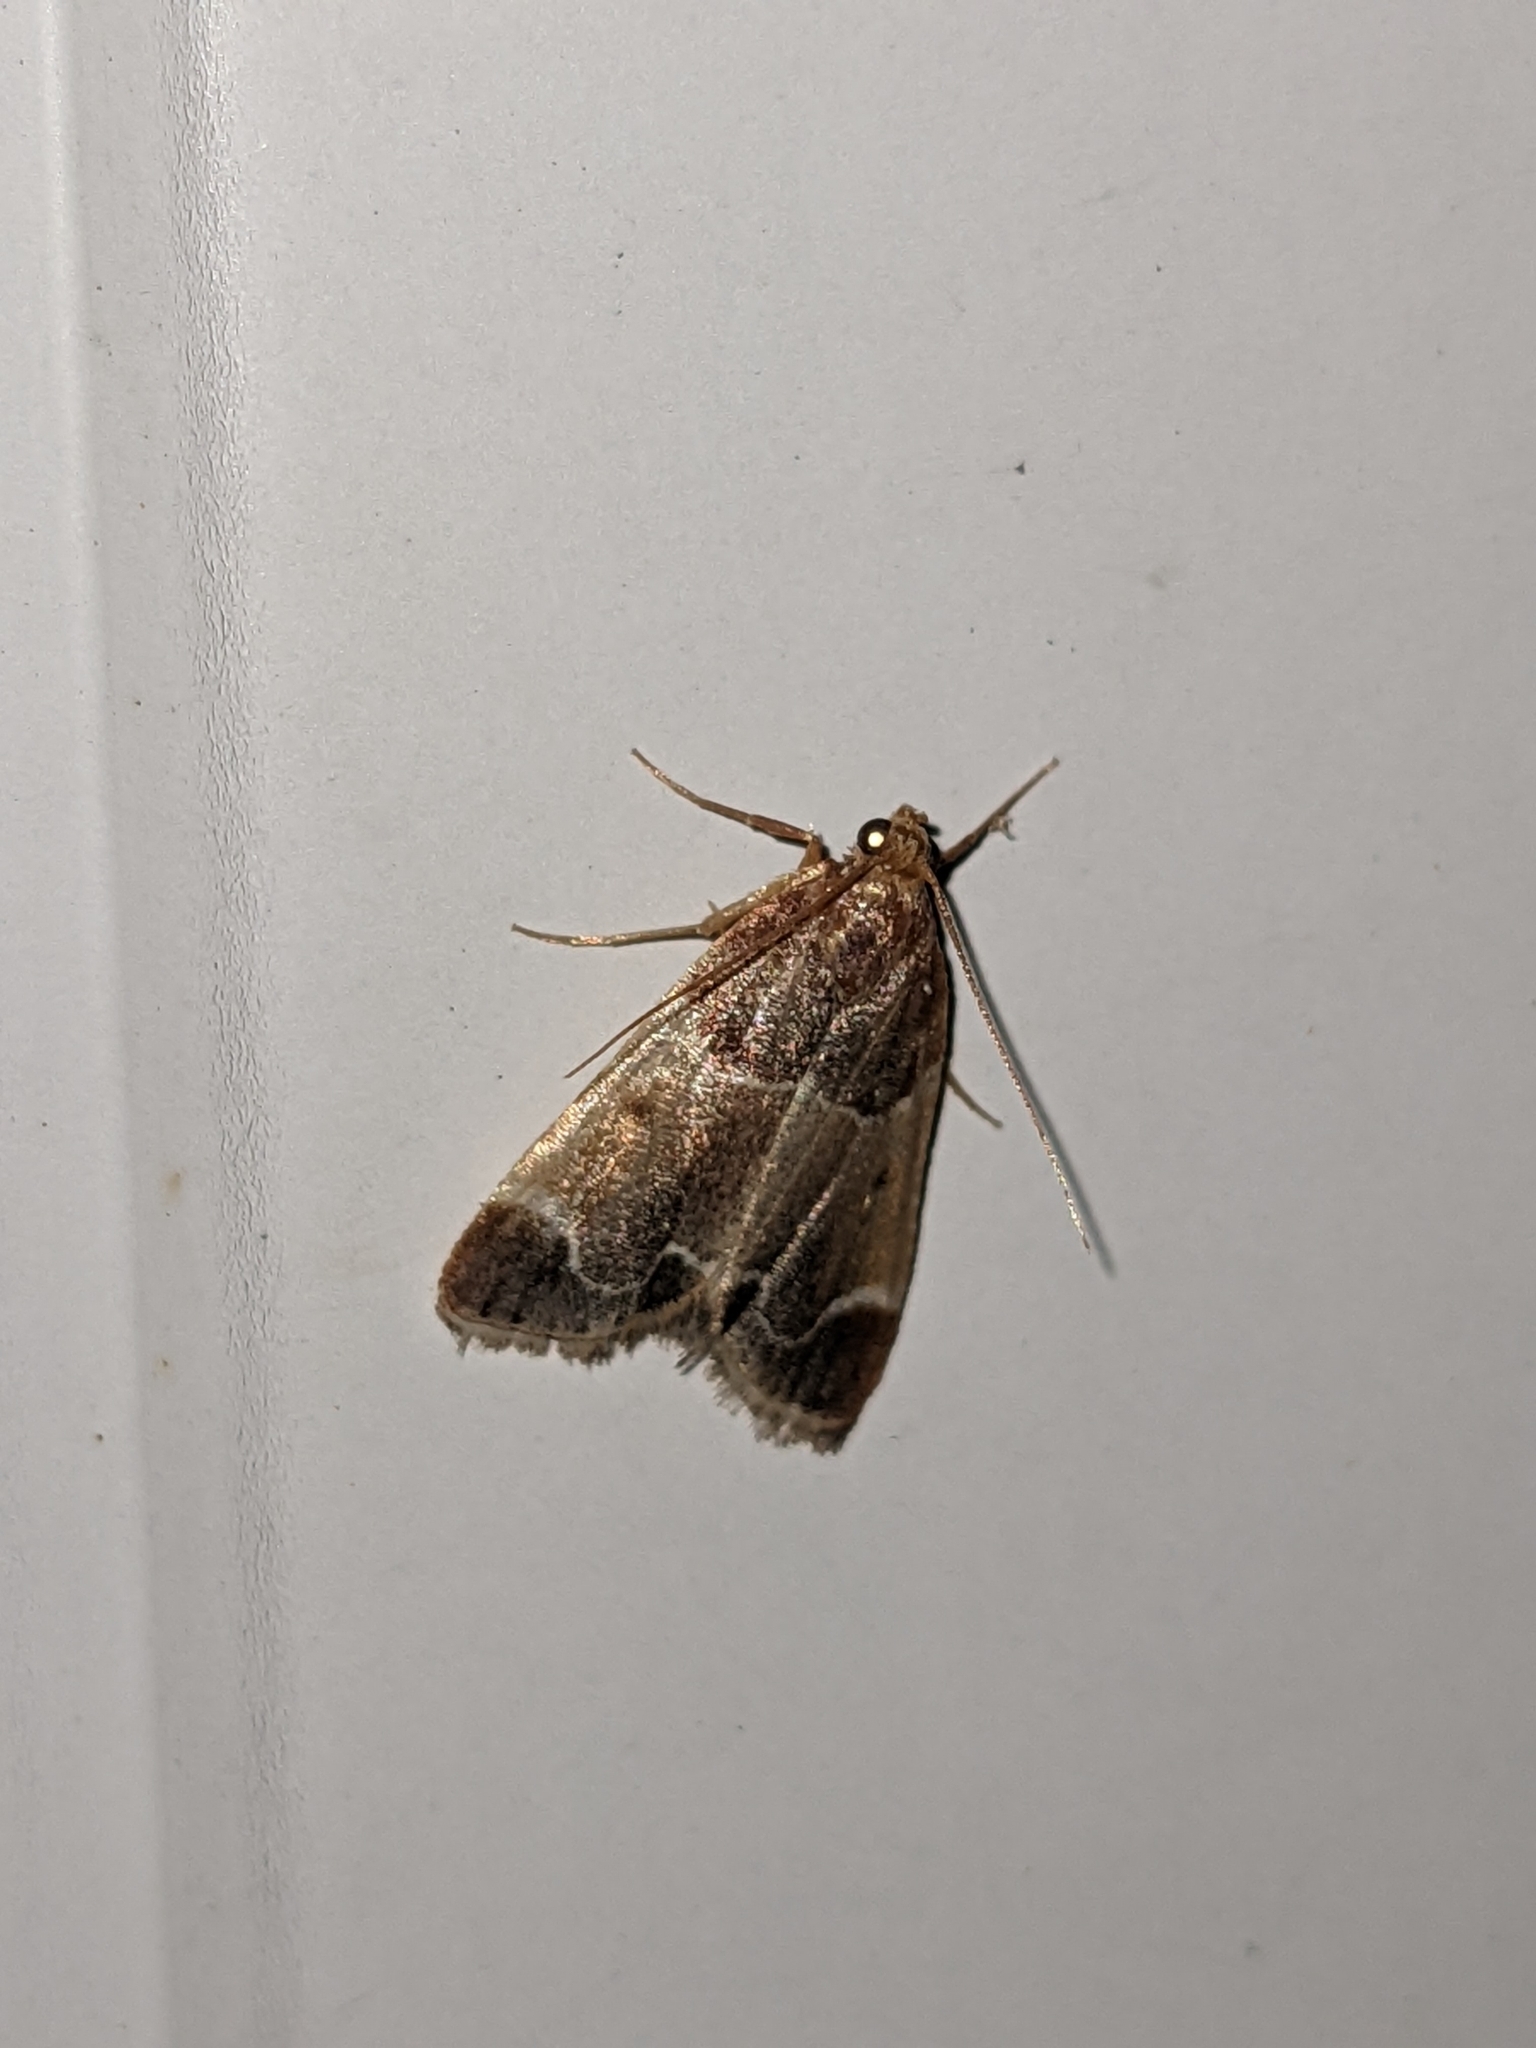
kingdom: Animalia
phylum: Arthropoda
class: Insecta
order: Lepidoptera
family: Pyralidae
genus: Pyralis
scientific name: Pyralis farinalis
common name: Meal moth
